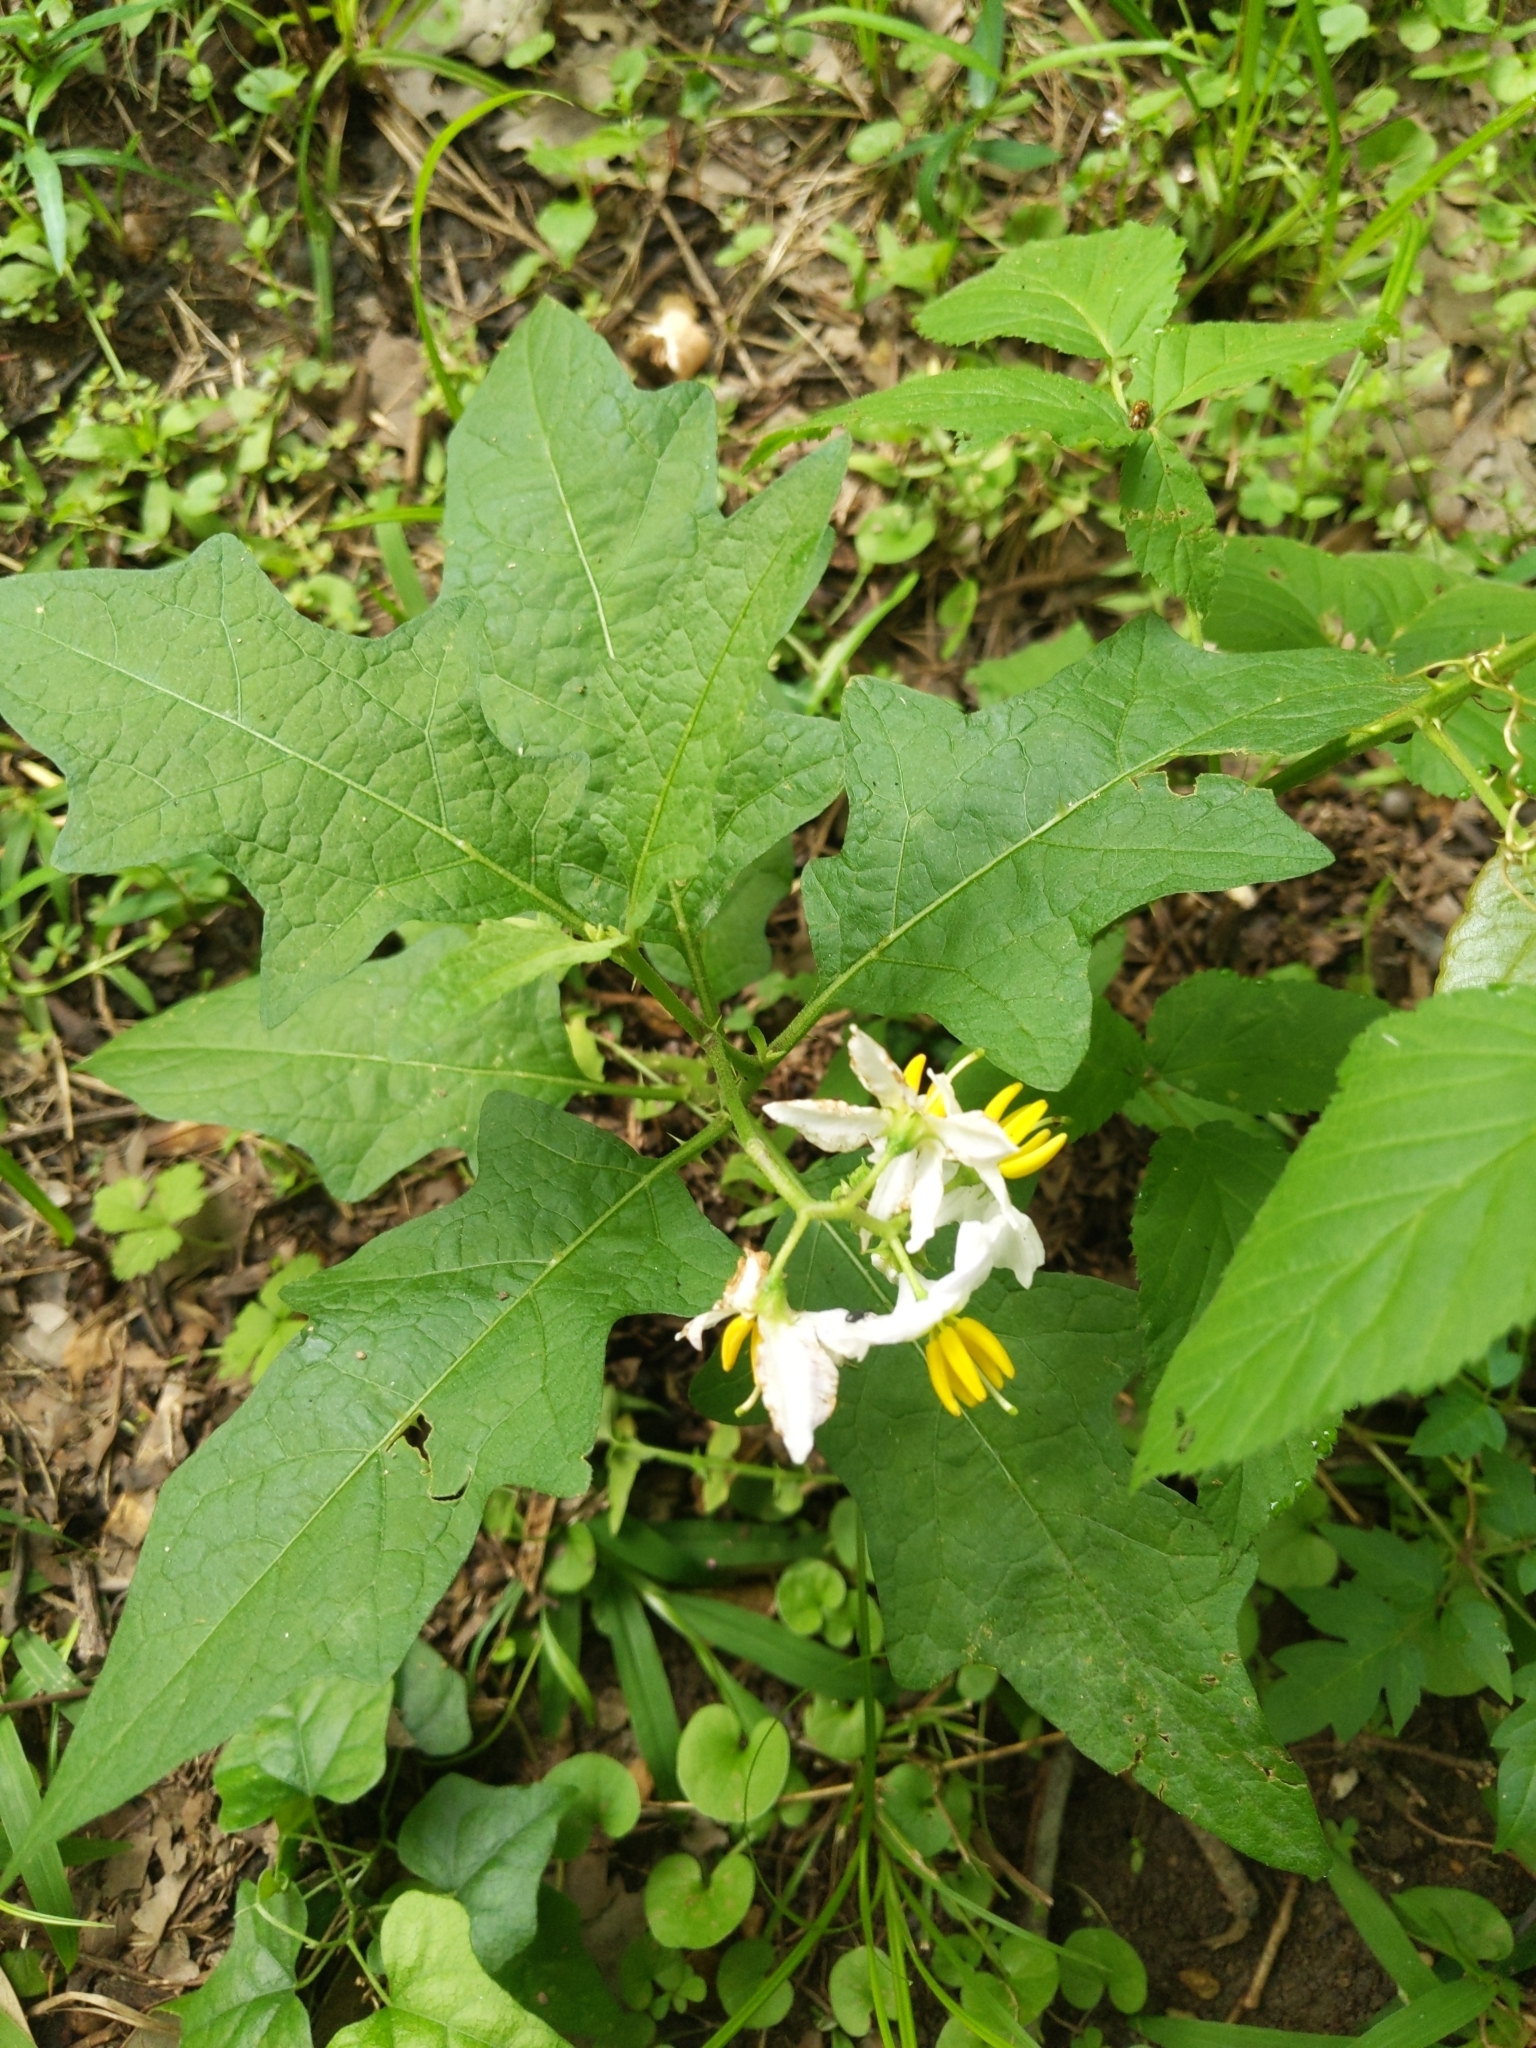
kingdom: Plantae
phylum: Tracheophyta
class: Magnoliopsida
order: Solanales
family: Solanaceae
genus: Solanum
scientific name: Solanum carolinense
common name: Horse-nettle
